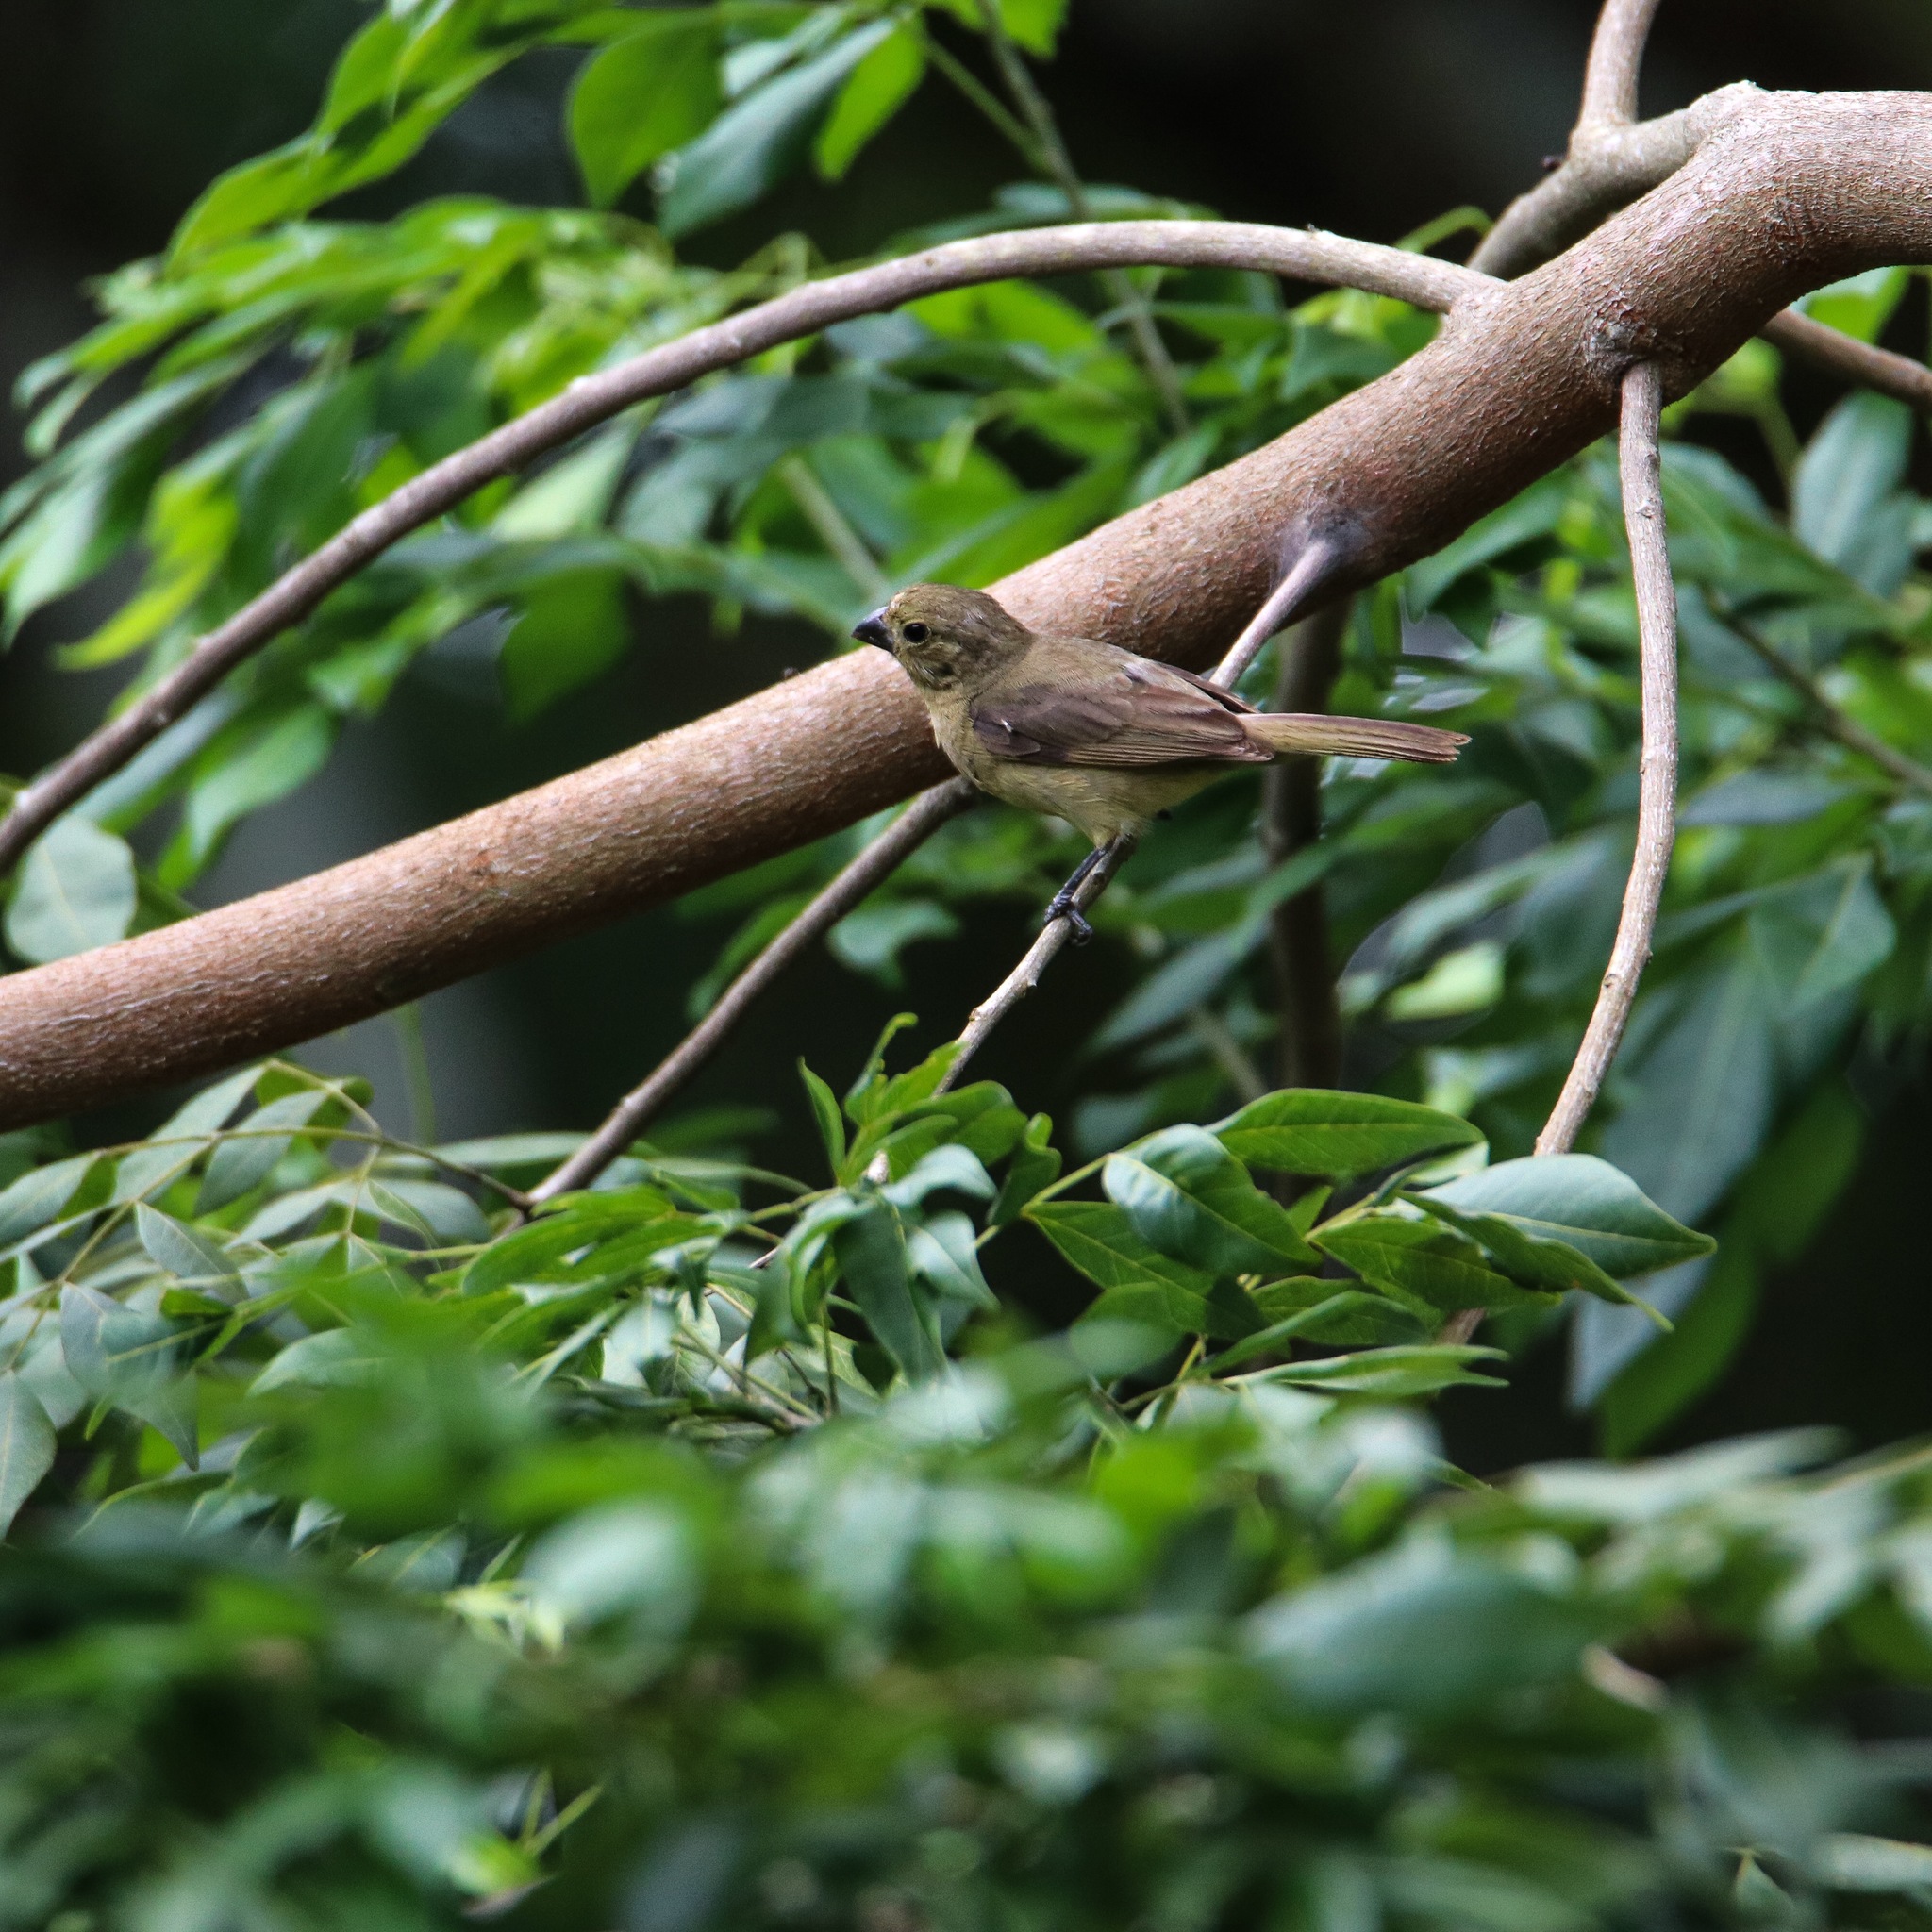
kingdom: Animalia
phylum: Chordata
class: Aves
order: Passeriformes
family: Thraupidae
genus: Sporophila
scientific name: Sporophila nigricollis
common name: Yellow-bellied seedeater
